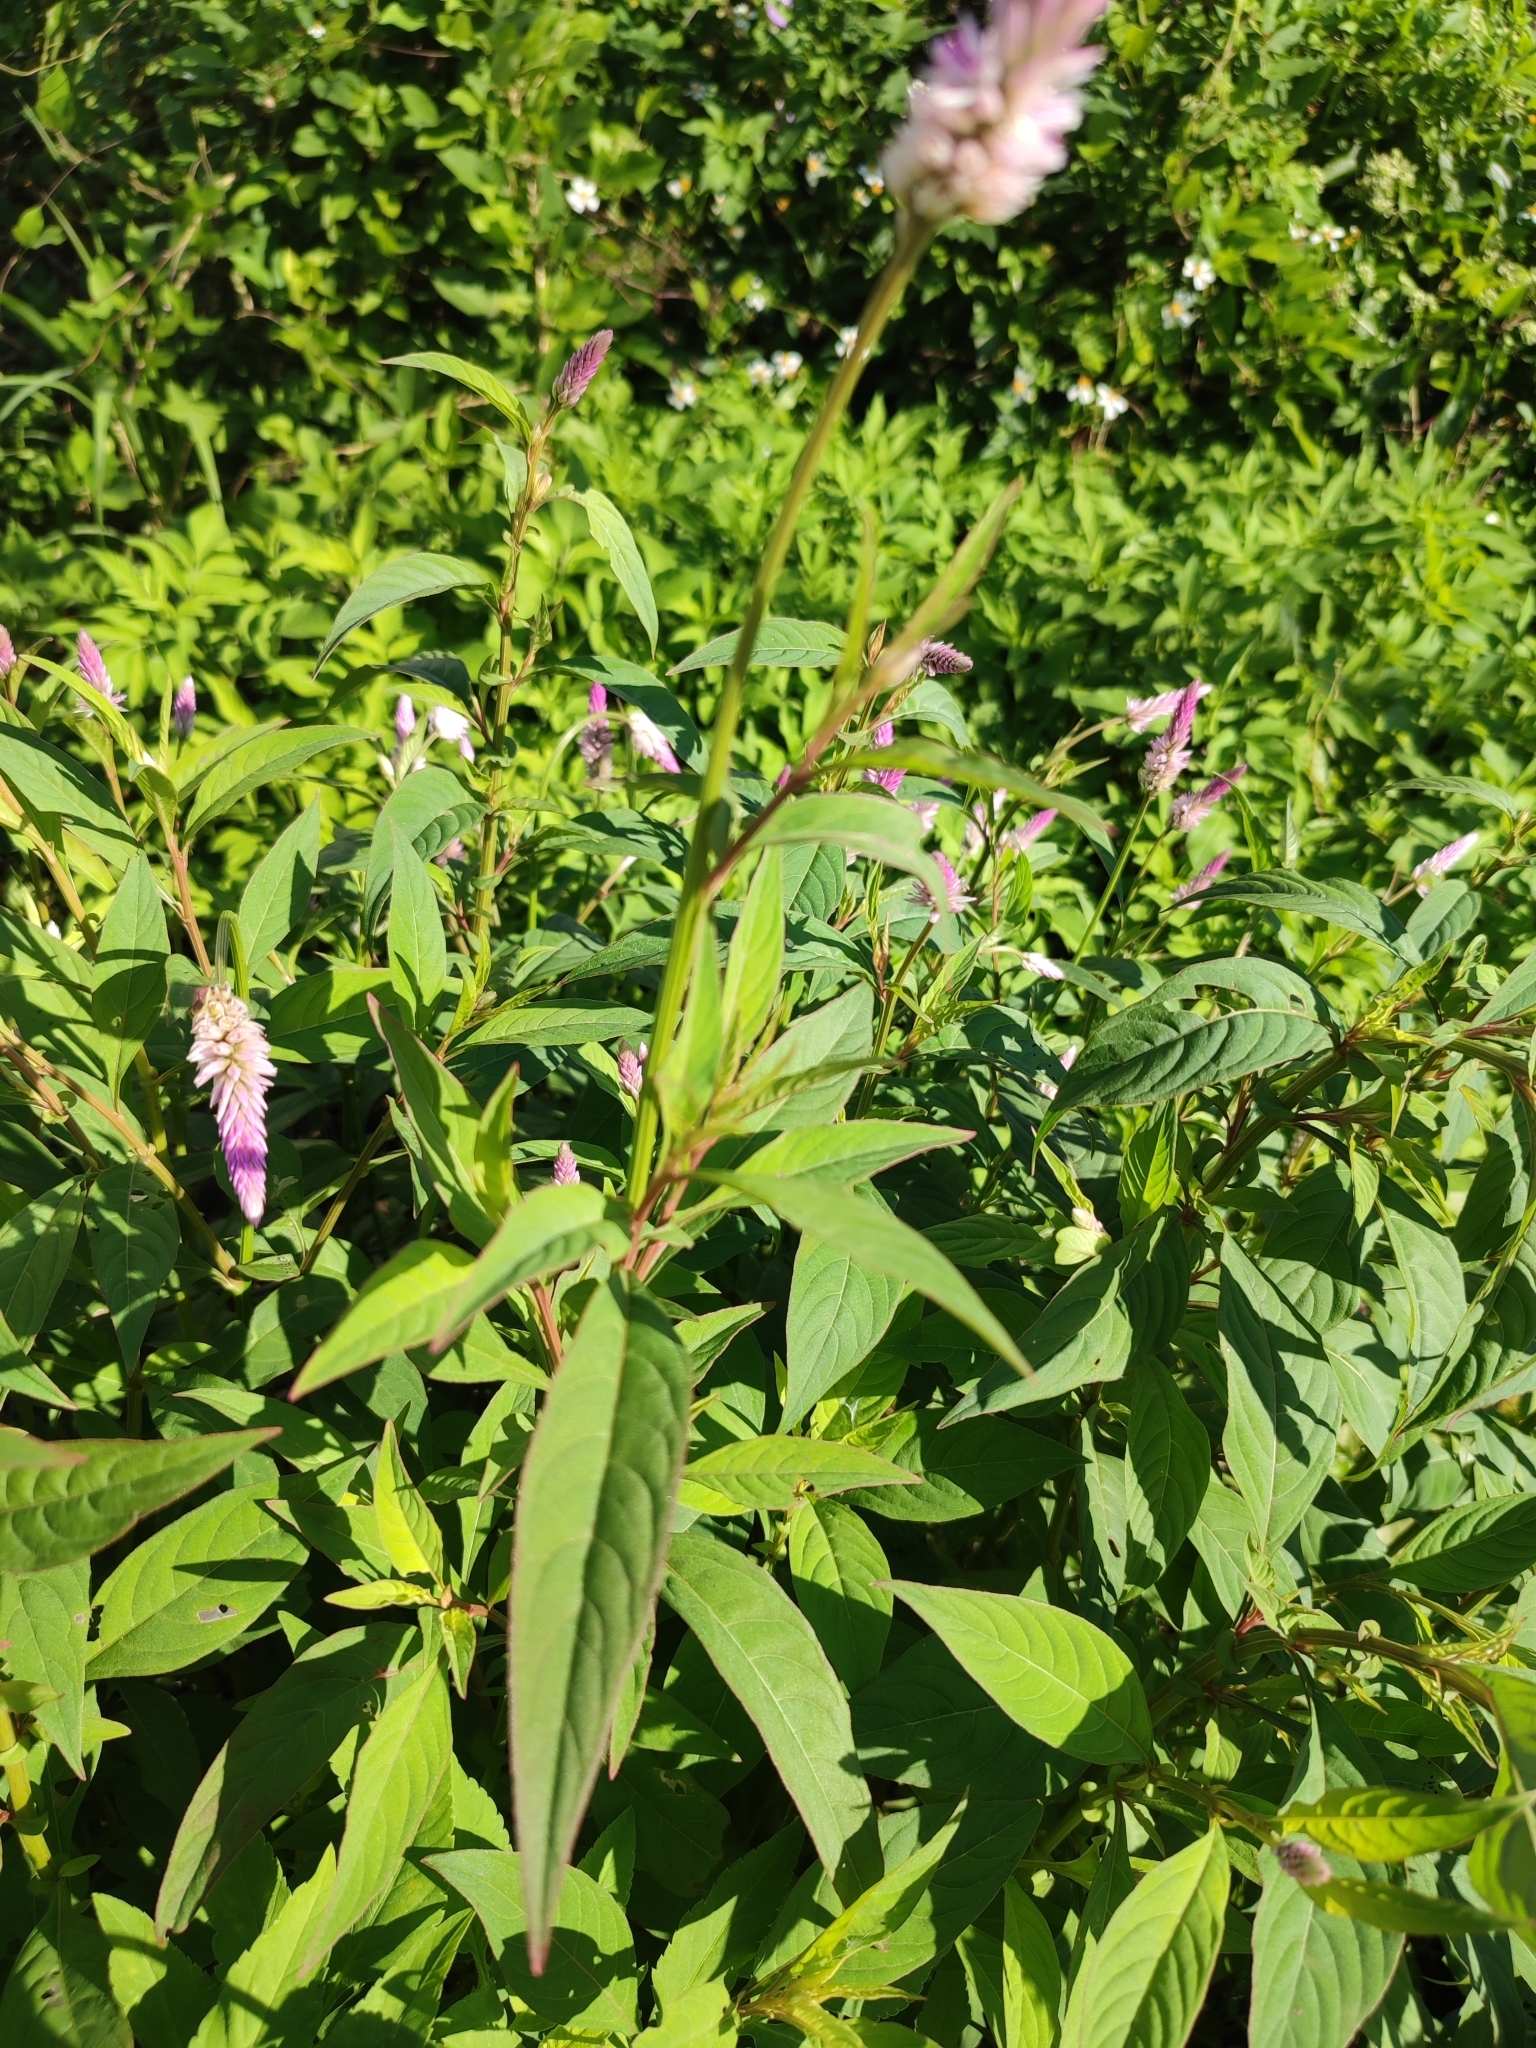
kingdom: Plantae
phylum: Tracheophyta
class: Magnoliopsida
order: Caryophyllales
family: Amaranthaceae
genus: Celosia
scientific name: Celosia argentea
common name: Feather cockscomb
